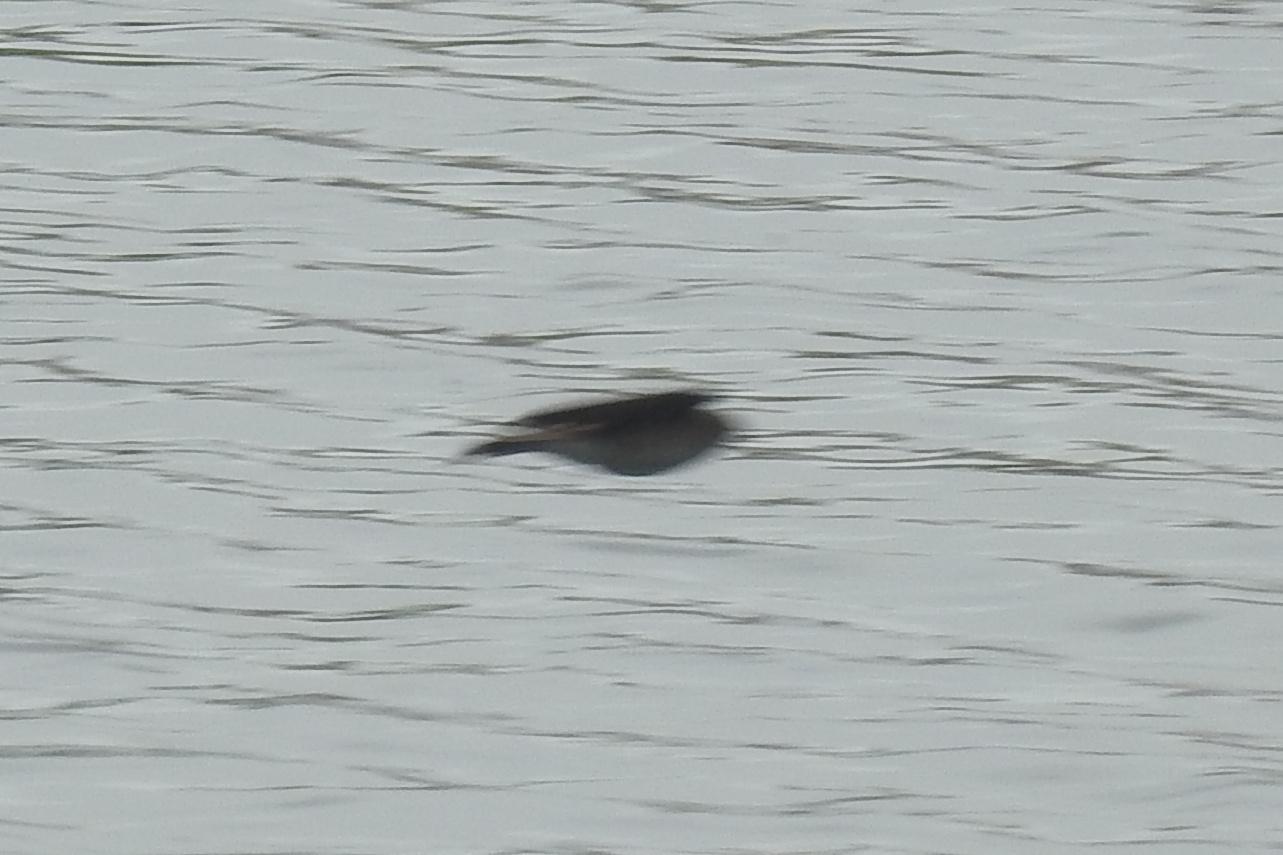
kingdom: Animalia
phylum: Chordata
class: Aves
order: Passeriformes
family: Hirundinidae
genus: Stelgidopteryx
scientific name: Stelgidopteryx serripennis
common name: Northern rough-winged swallow
